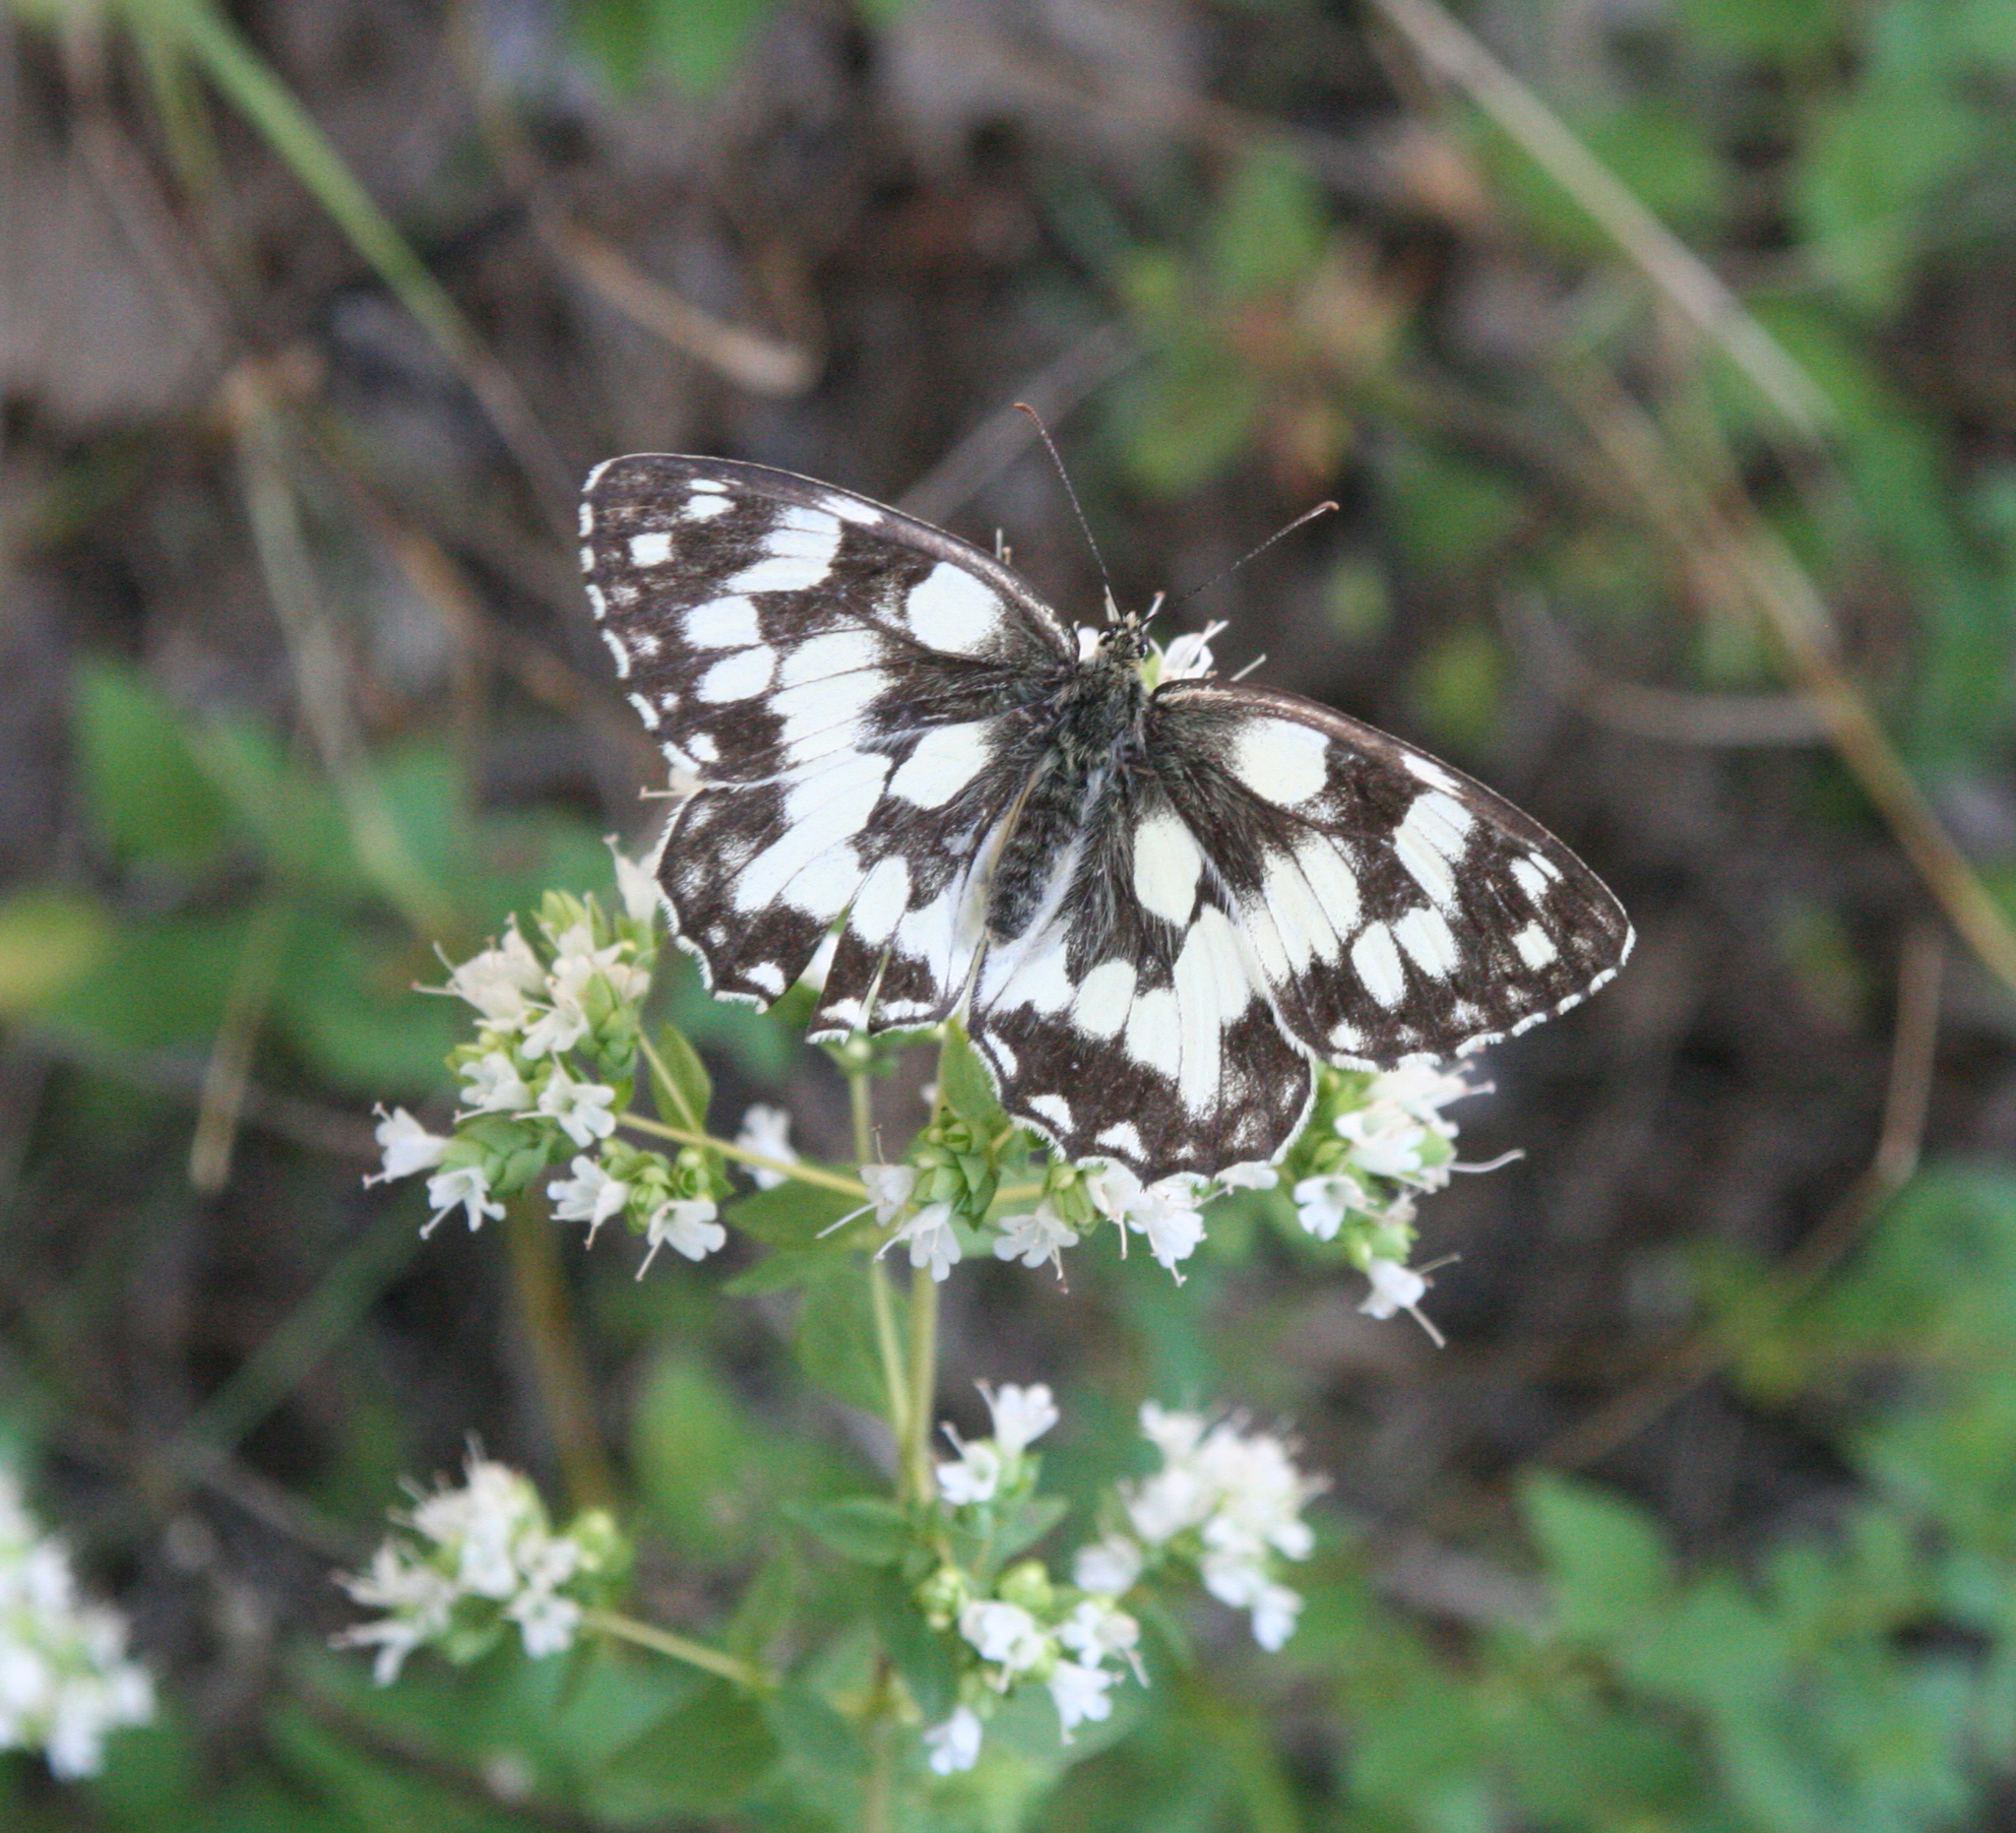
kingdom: Animalia
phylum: Arthropoda
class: Insecta
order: Lepidoptera
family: Nymphalidae
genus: Melanargia
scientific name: Melanargia galathea
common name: Marbled white
